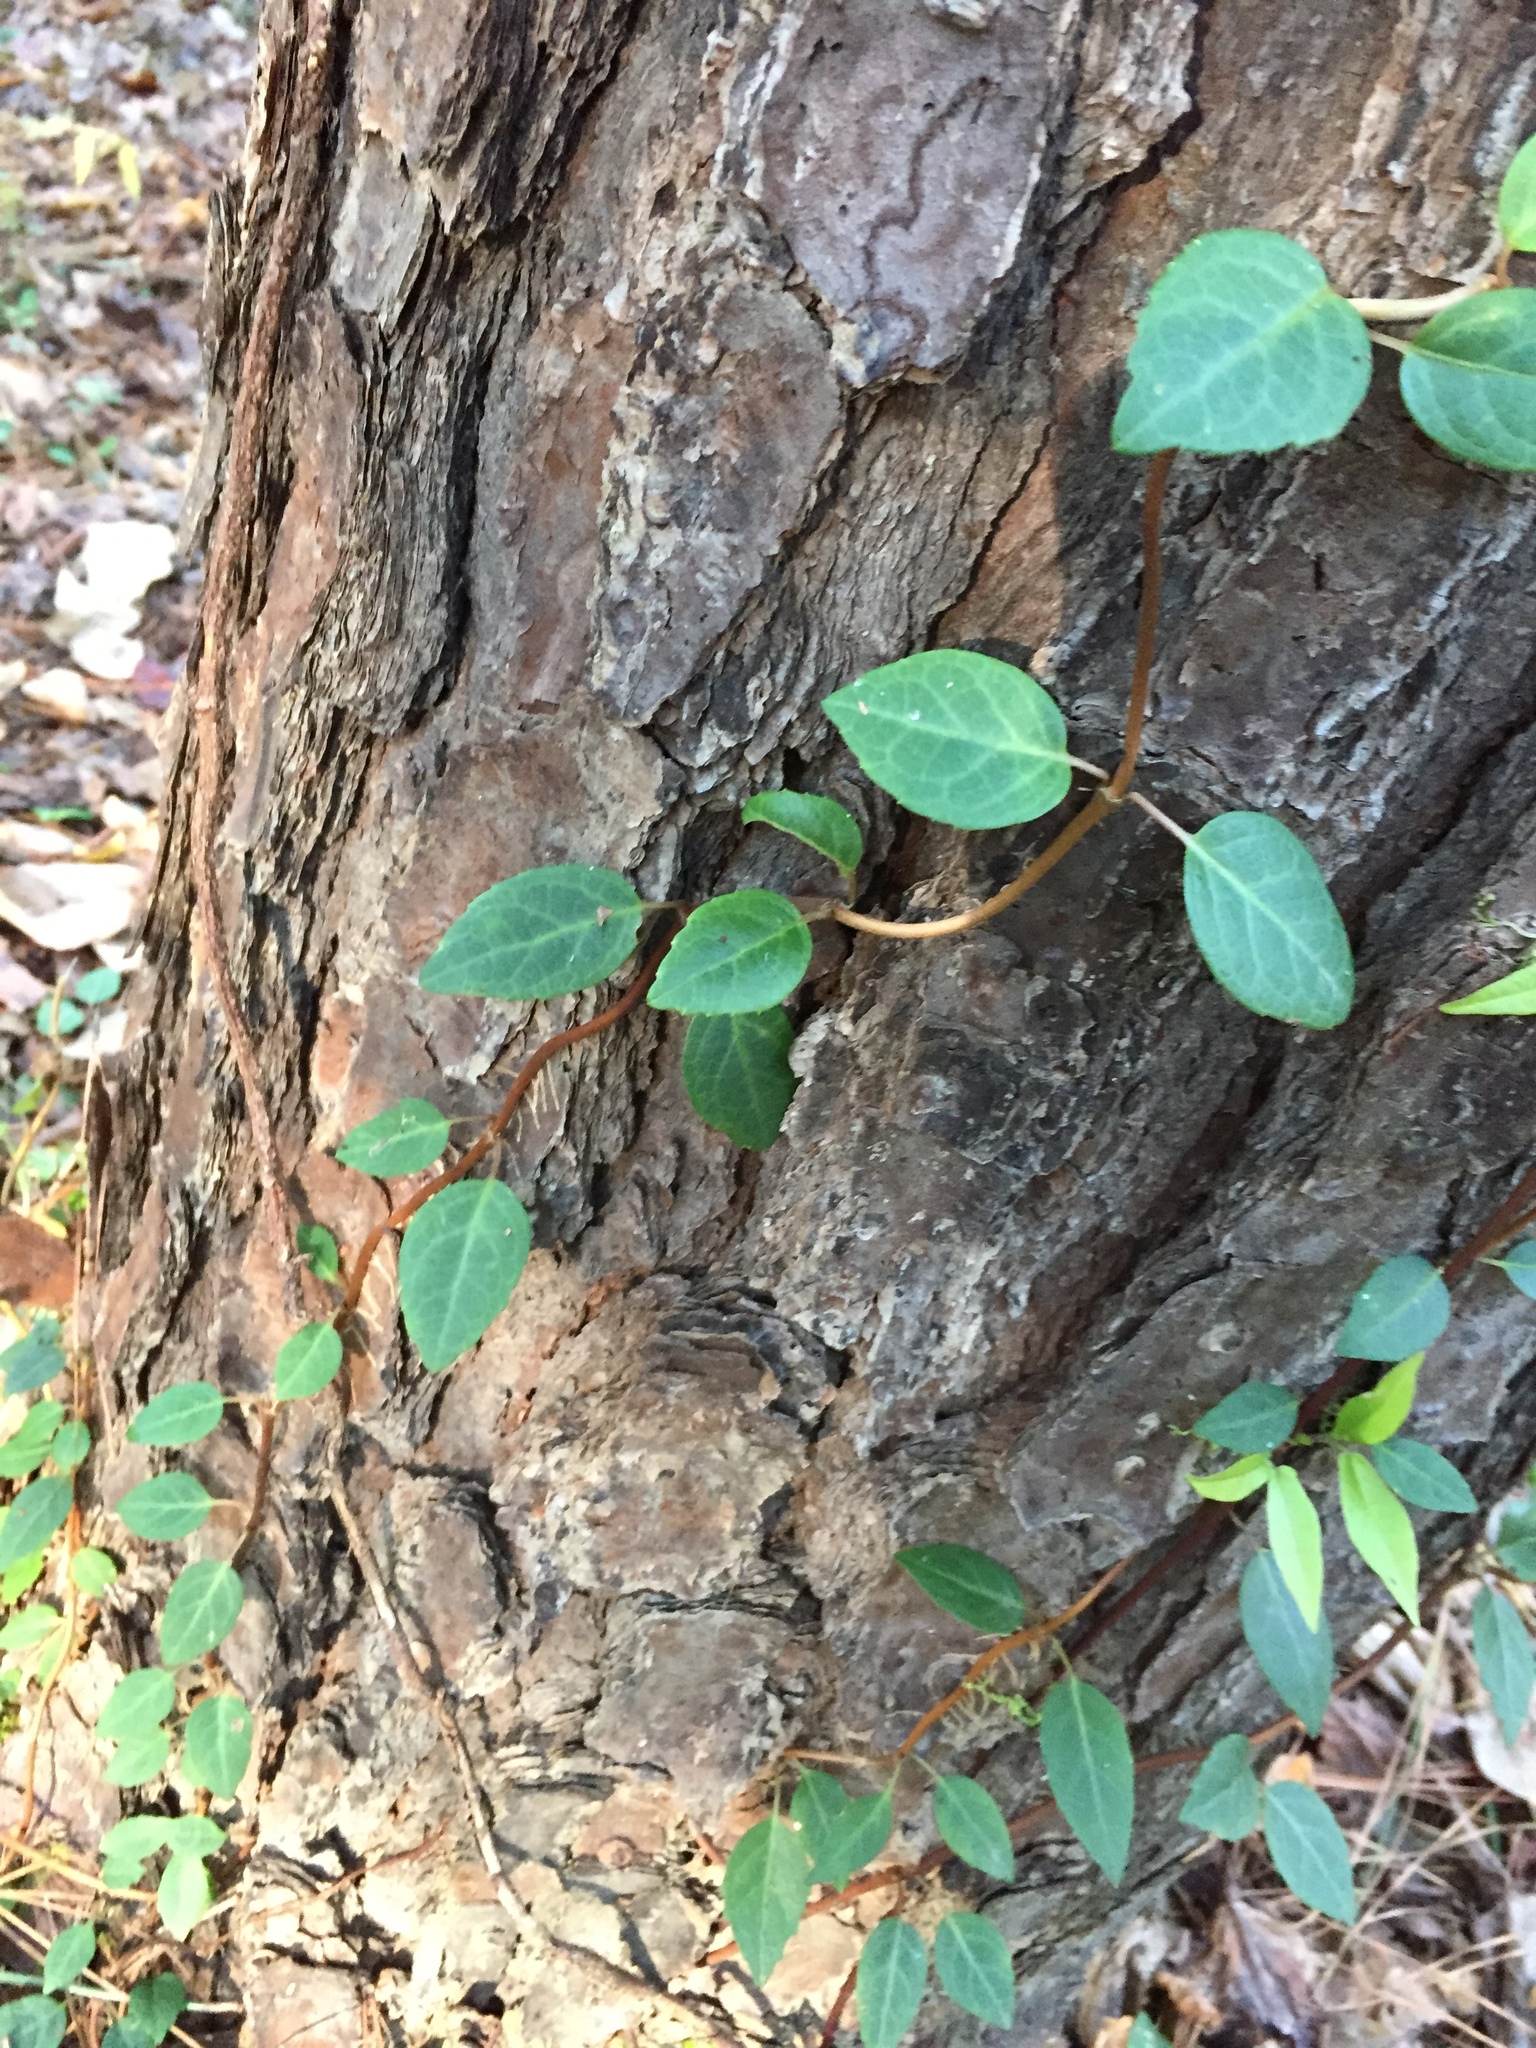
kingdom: Plantae
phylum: Tracheophyta
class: Magnoliopsida
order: Cornales
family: Hydrangeaceae
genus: Hydrangea
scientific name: Hydrangea barbara
